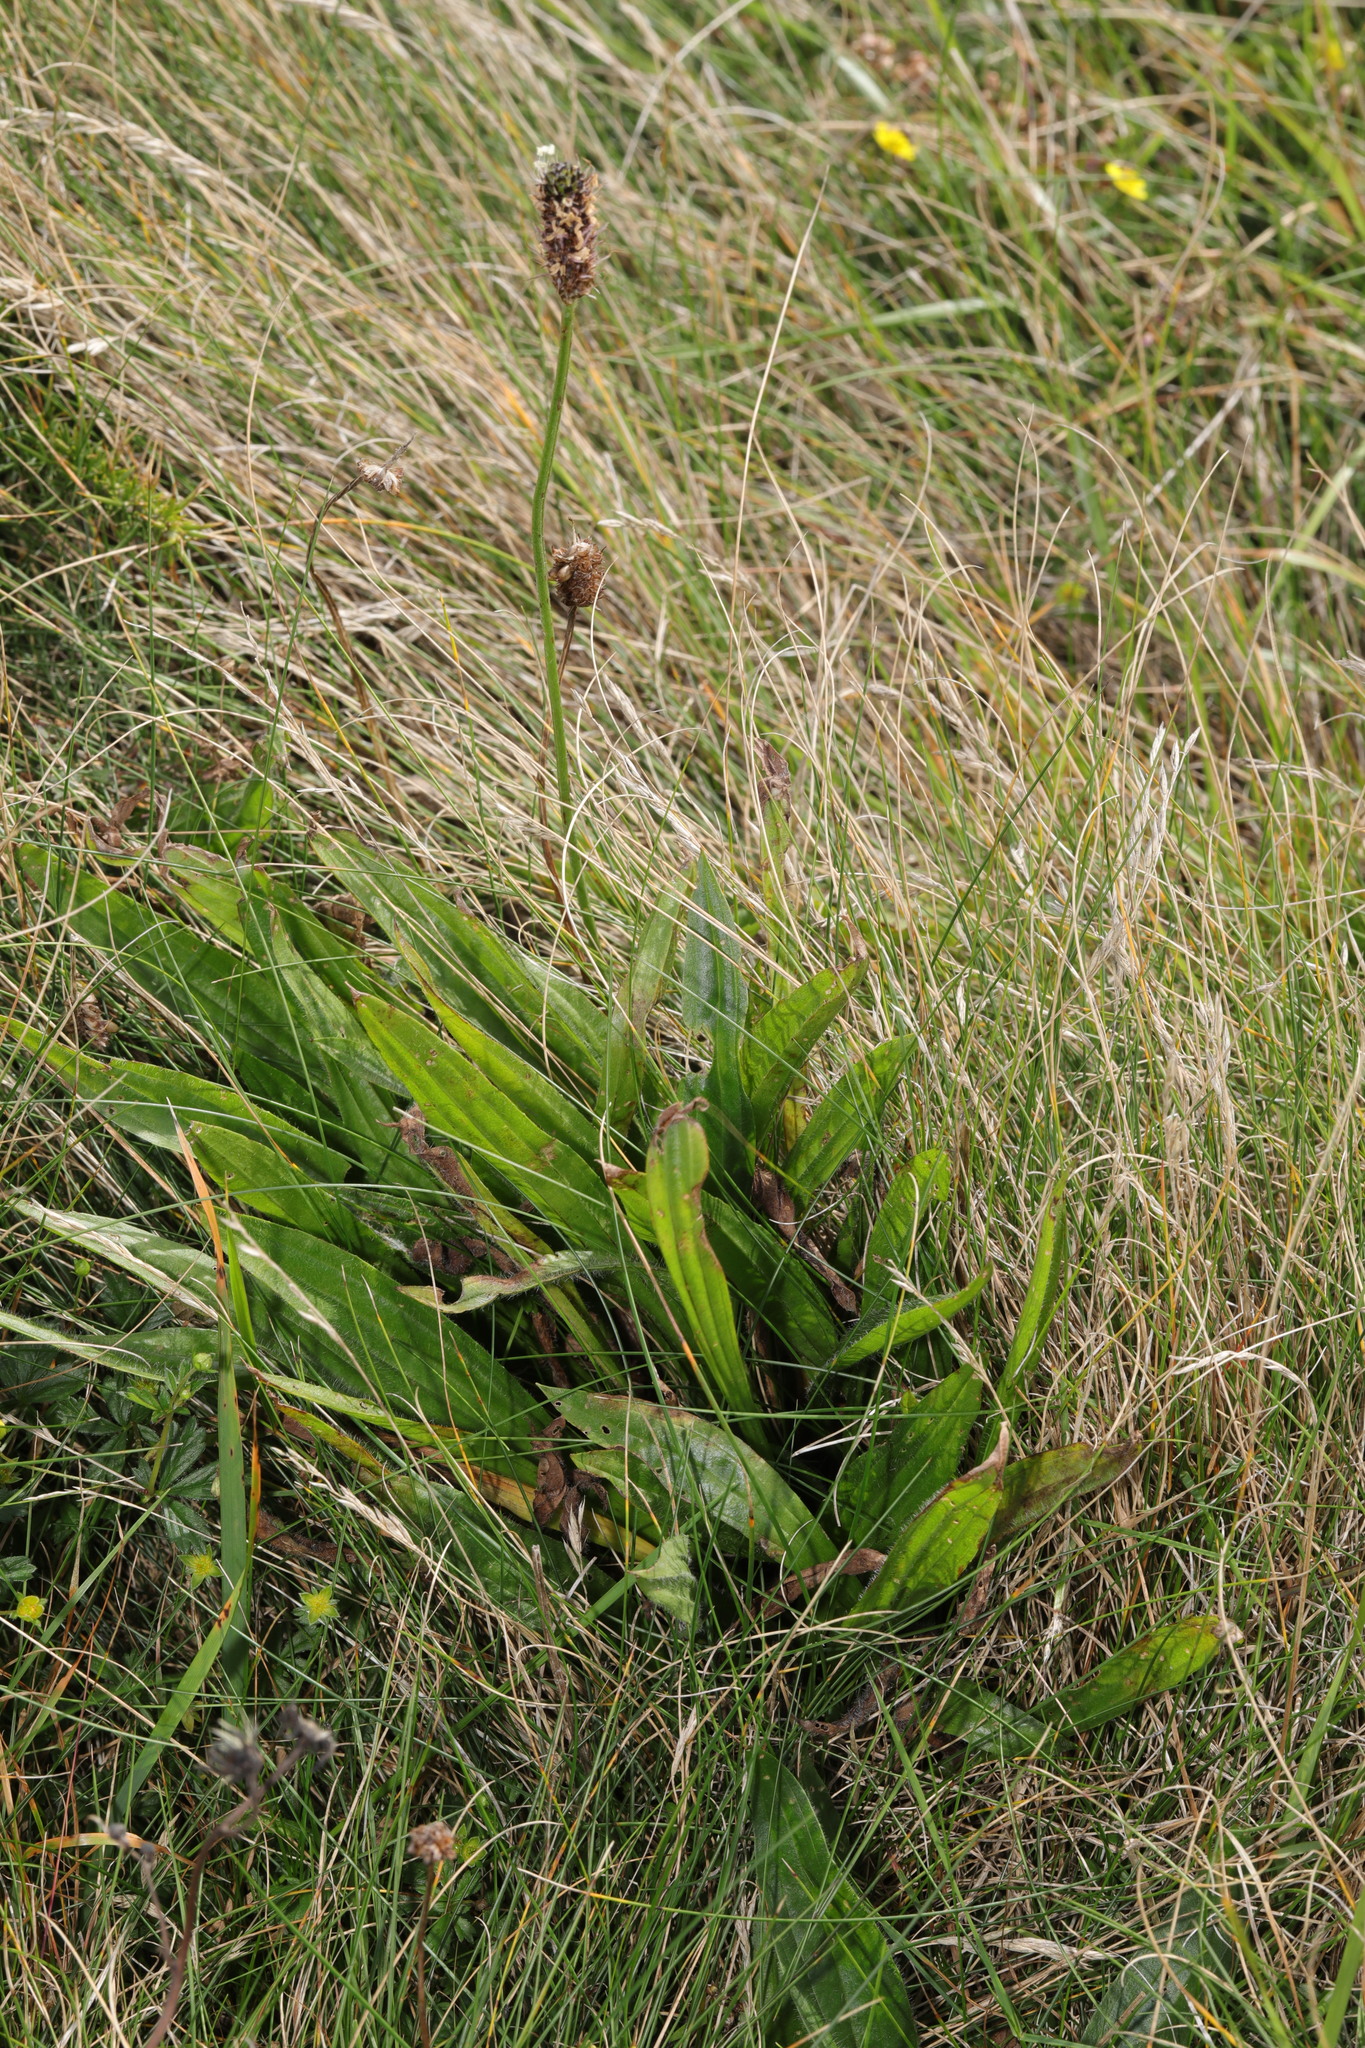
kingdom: Plantae
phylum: Tracheophyta
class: Magnoliopsida
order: Lamiales
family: Plantaginaceae
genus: Plantago
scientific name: Plantago lanceolata
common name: Ribwort plantain
